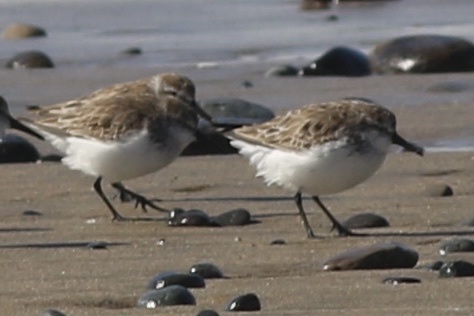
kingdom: Animalia
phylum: Chordata
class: Aves
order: Charadriiformes
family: Scolopacidae
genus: Calidris
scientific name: Calidris mauri
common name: Western sandpiper
